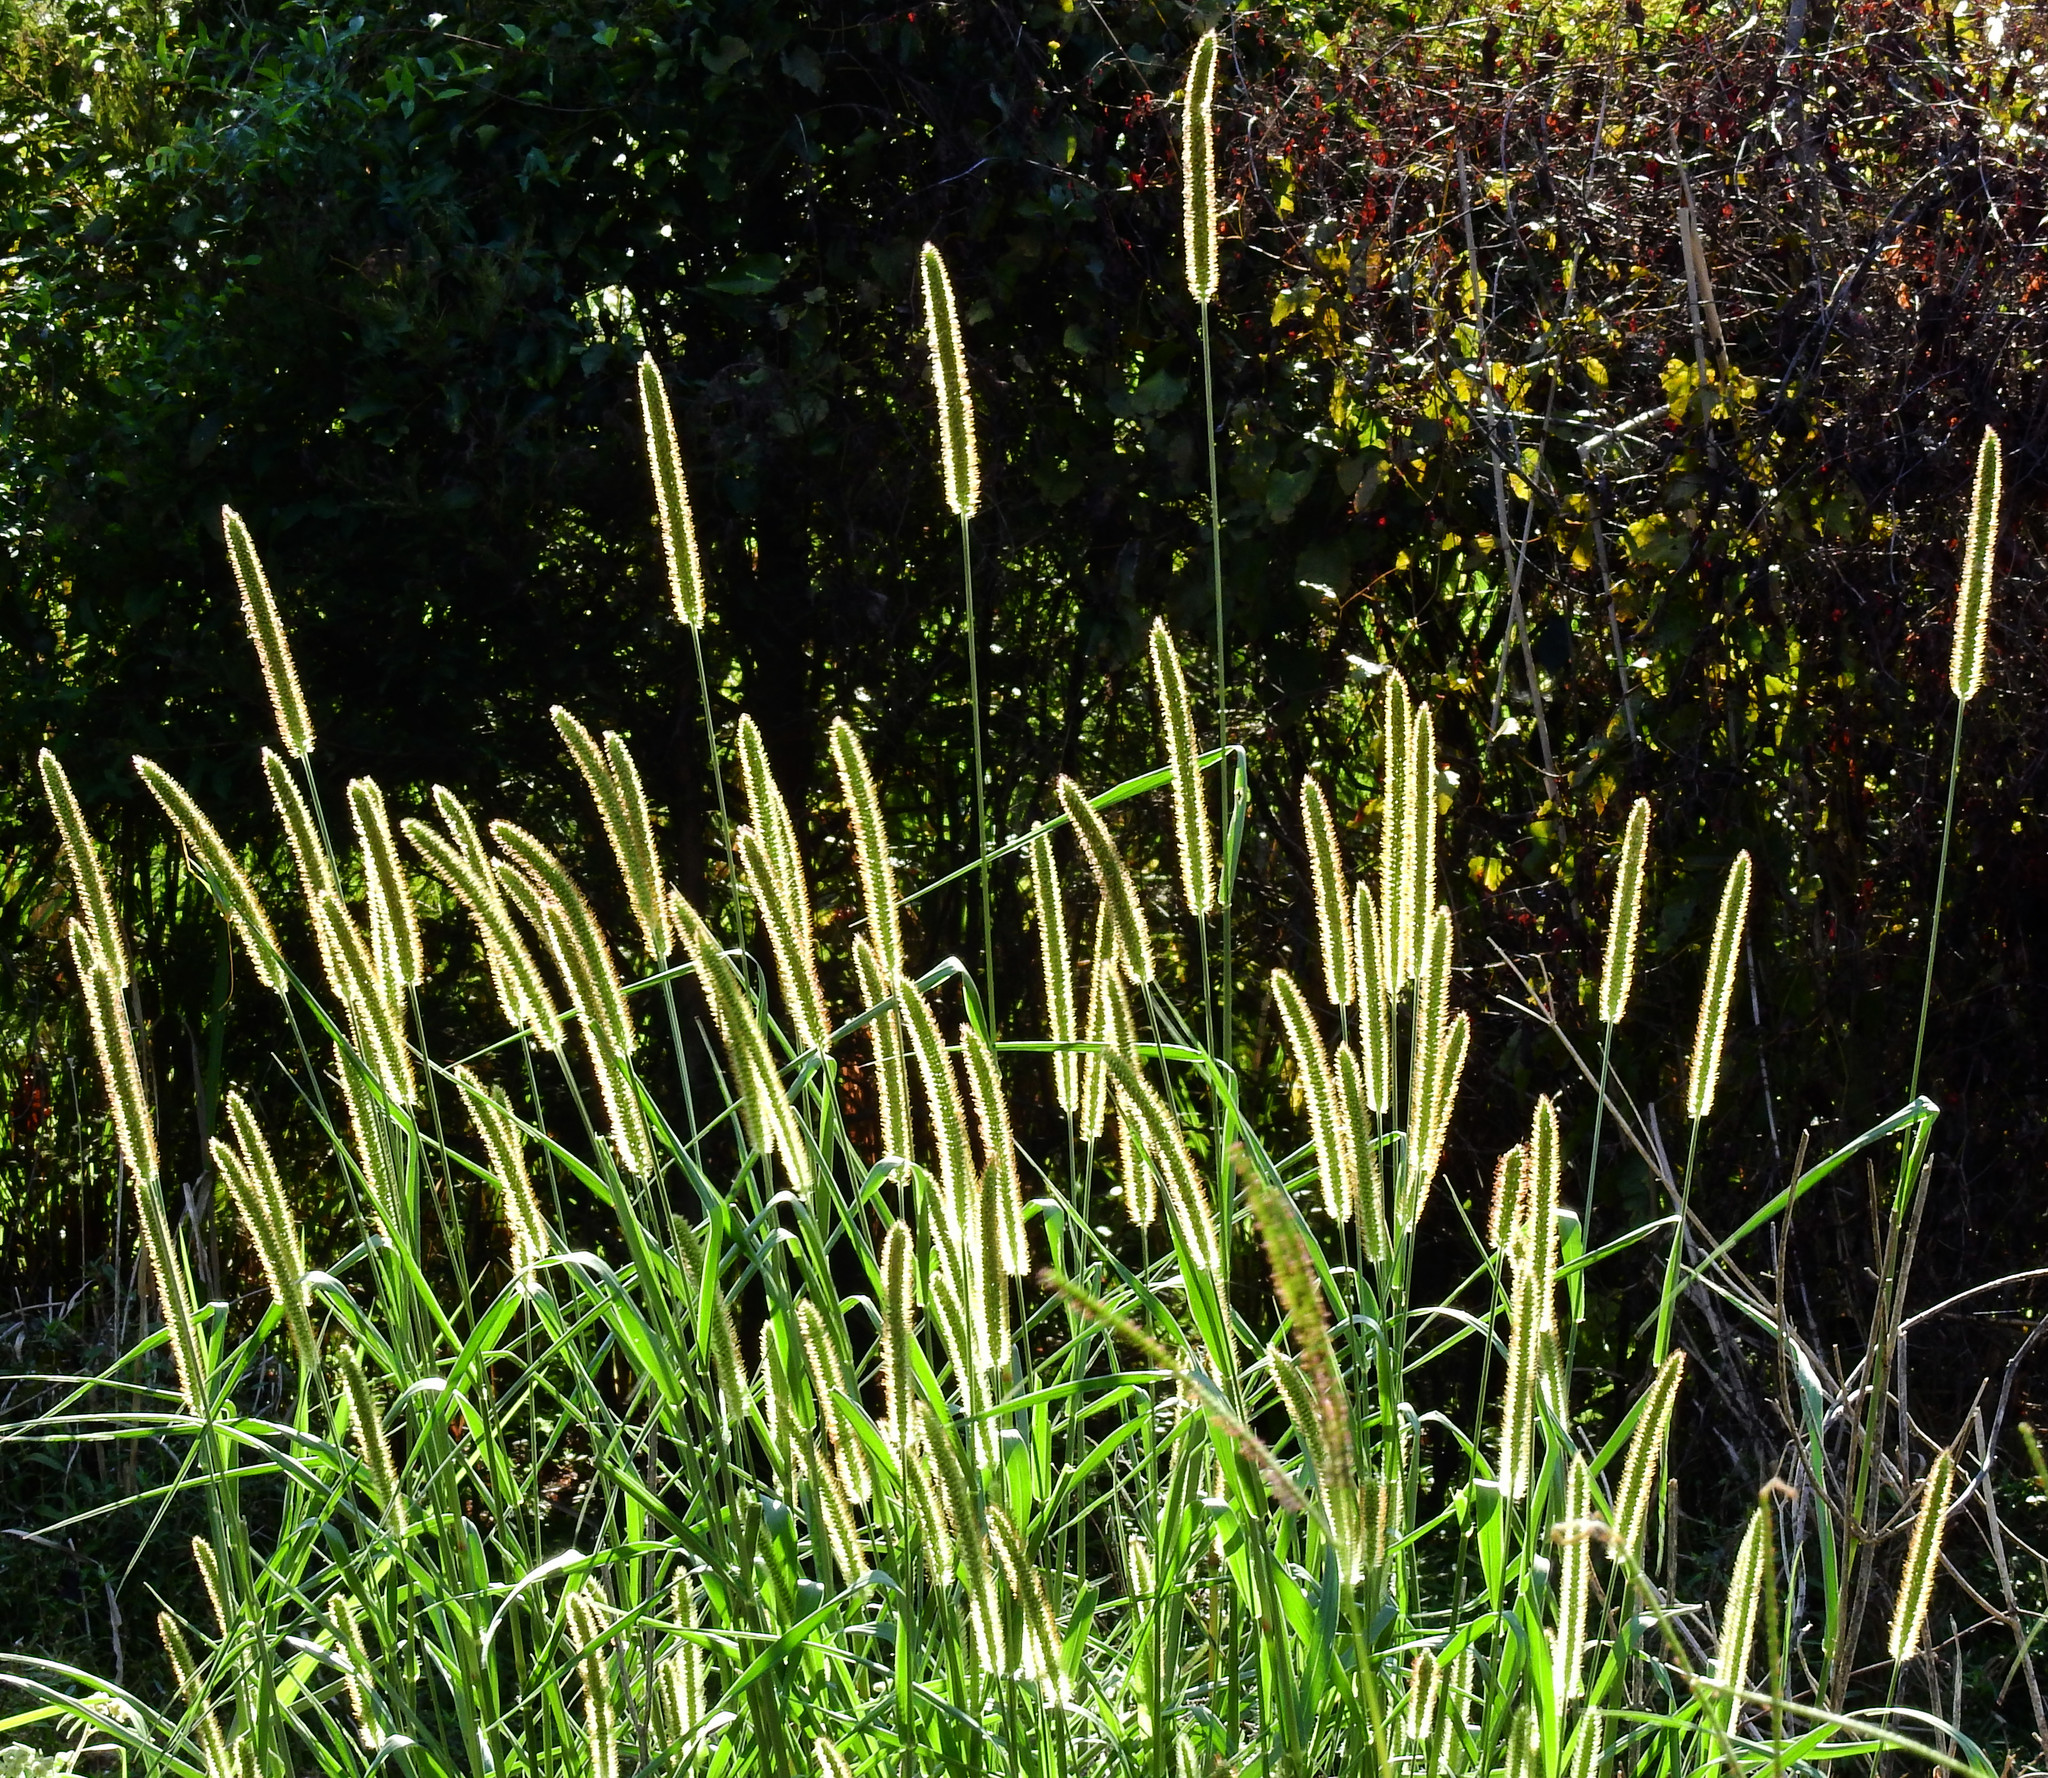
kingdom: Plantae
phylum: Tracheophyta
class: Liliopsida
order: Poales
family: Poaceae
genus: Setaria
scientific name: Setaria pumila
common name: Yellow bristle-grass
